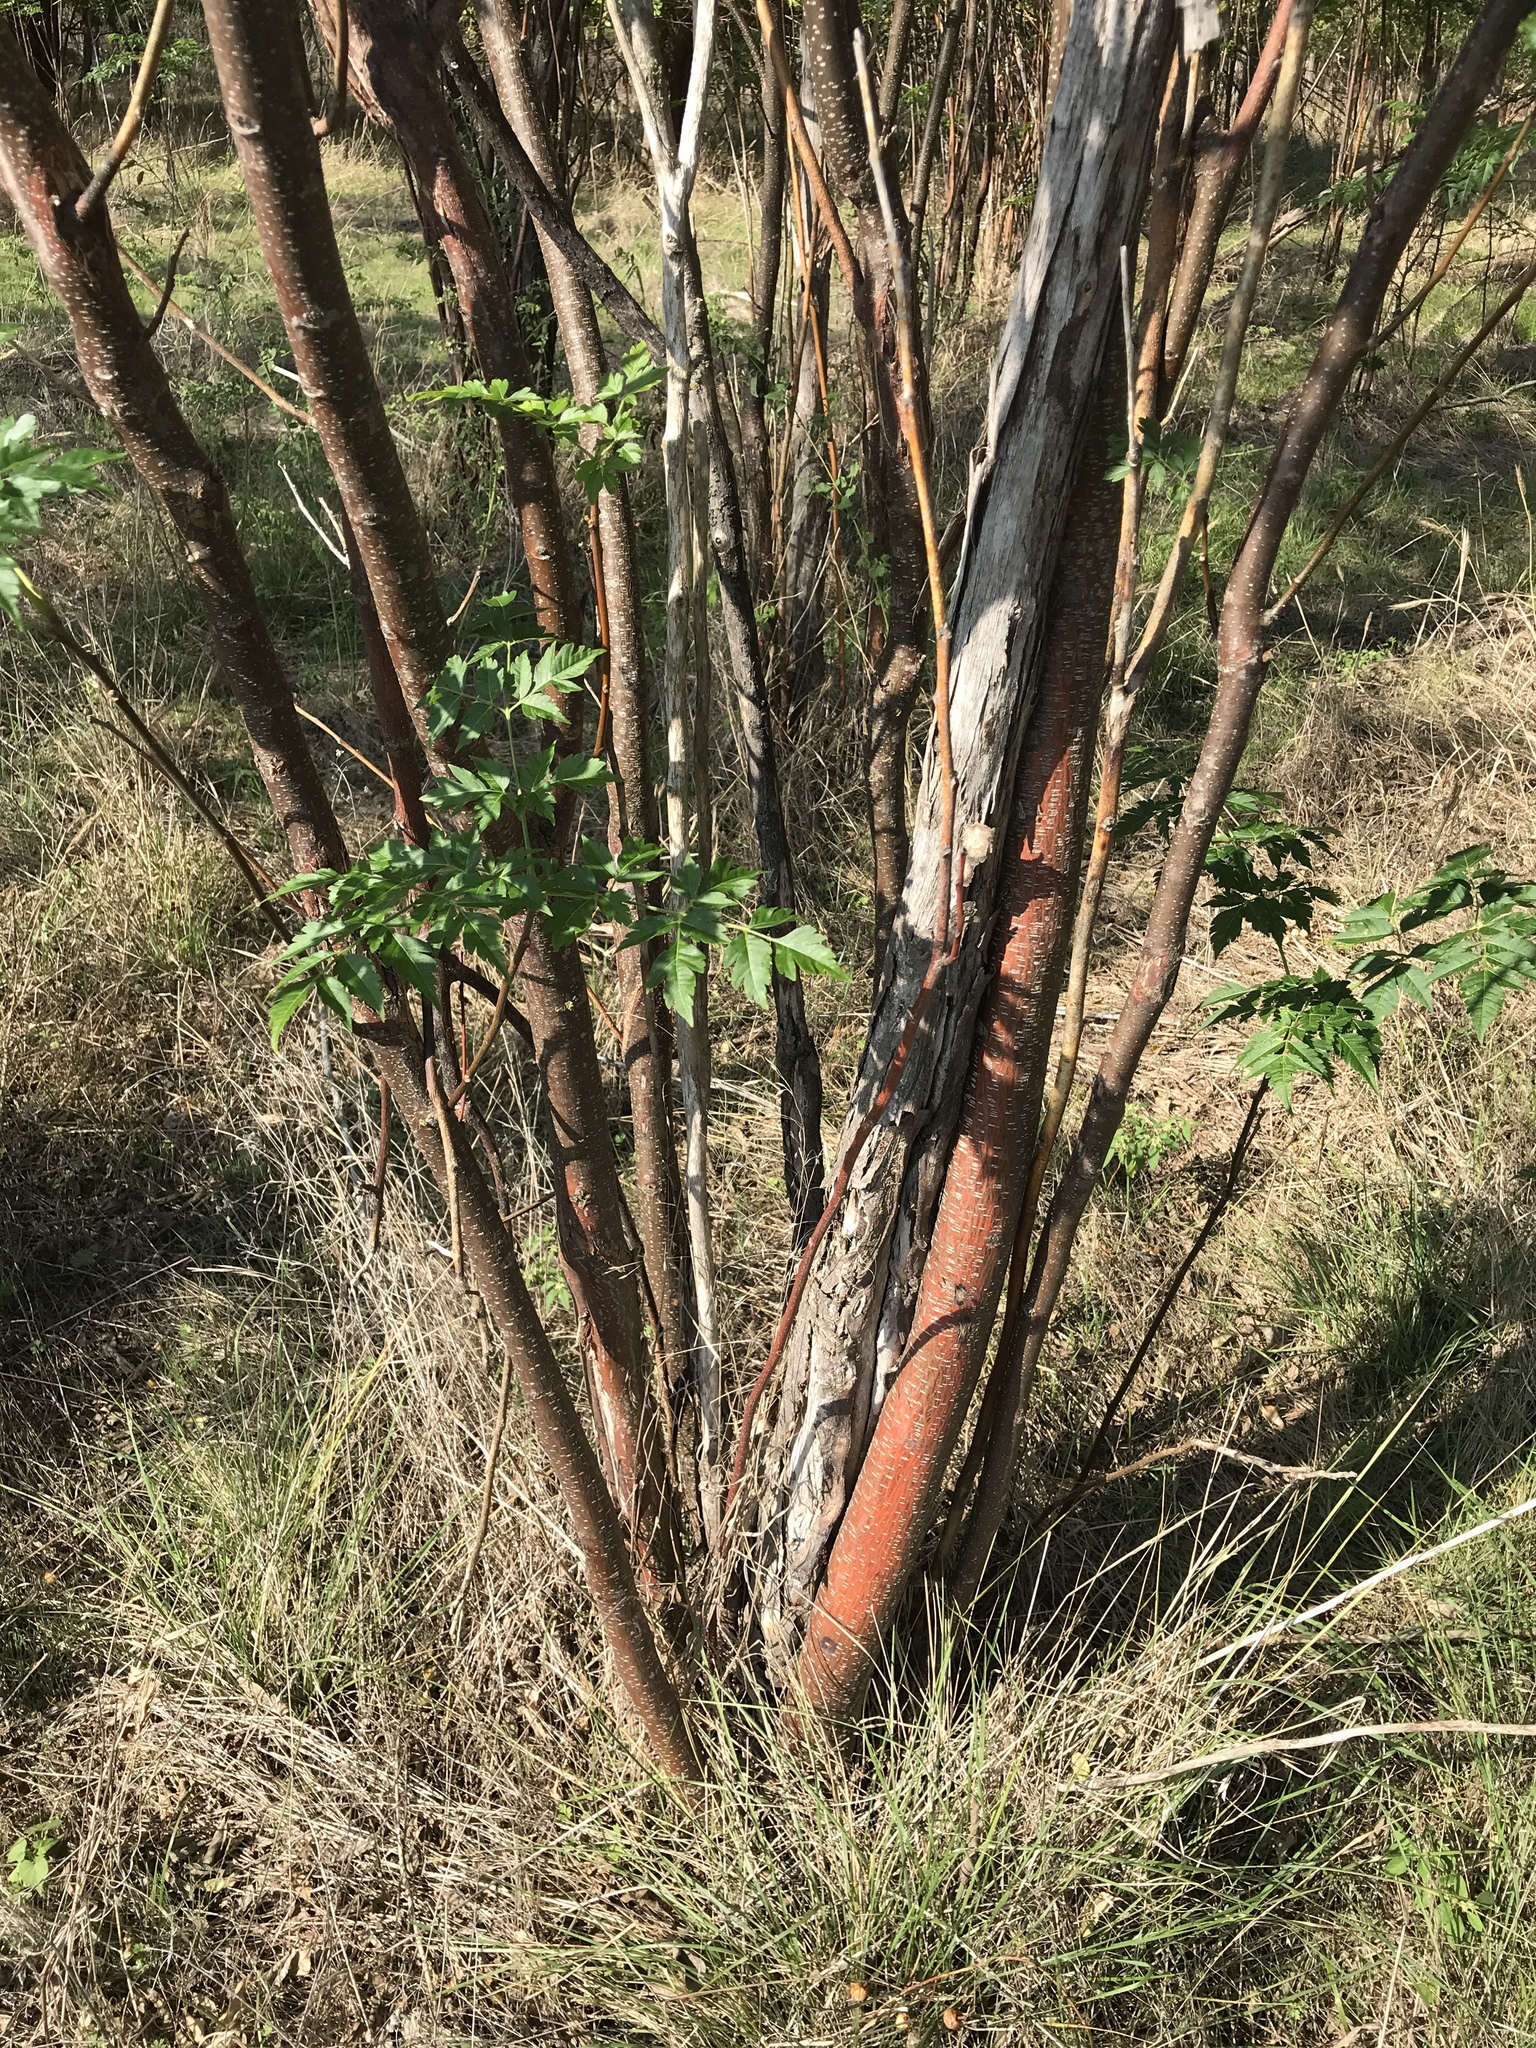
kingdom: Plantae
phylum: Tracheophyta
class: Magnoliopsida
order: Sapindales
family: Meliaceae
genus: Melia
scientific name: Melia azedarach
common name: Chinaberrytree
